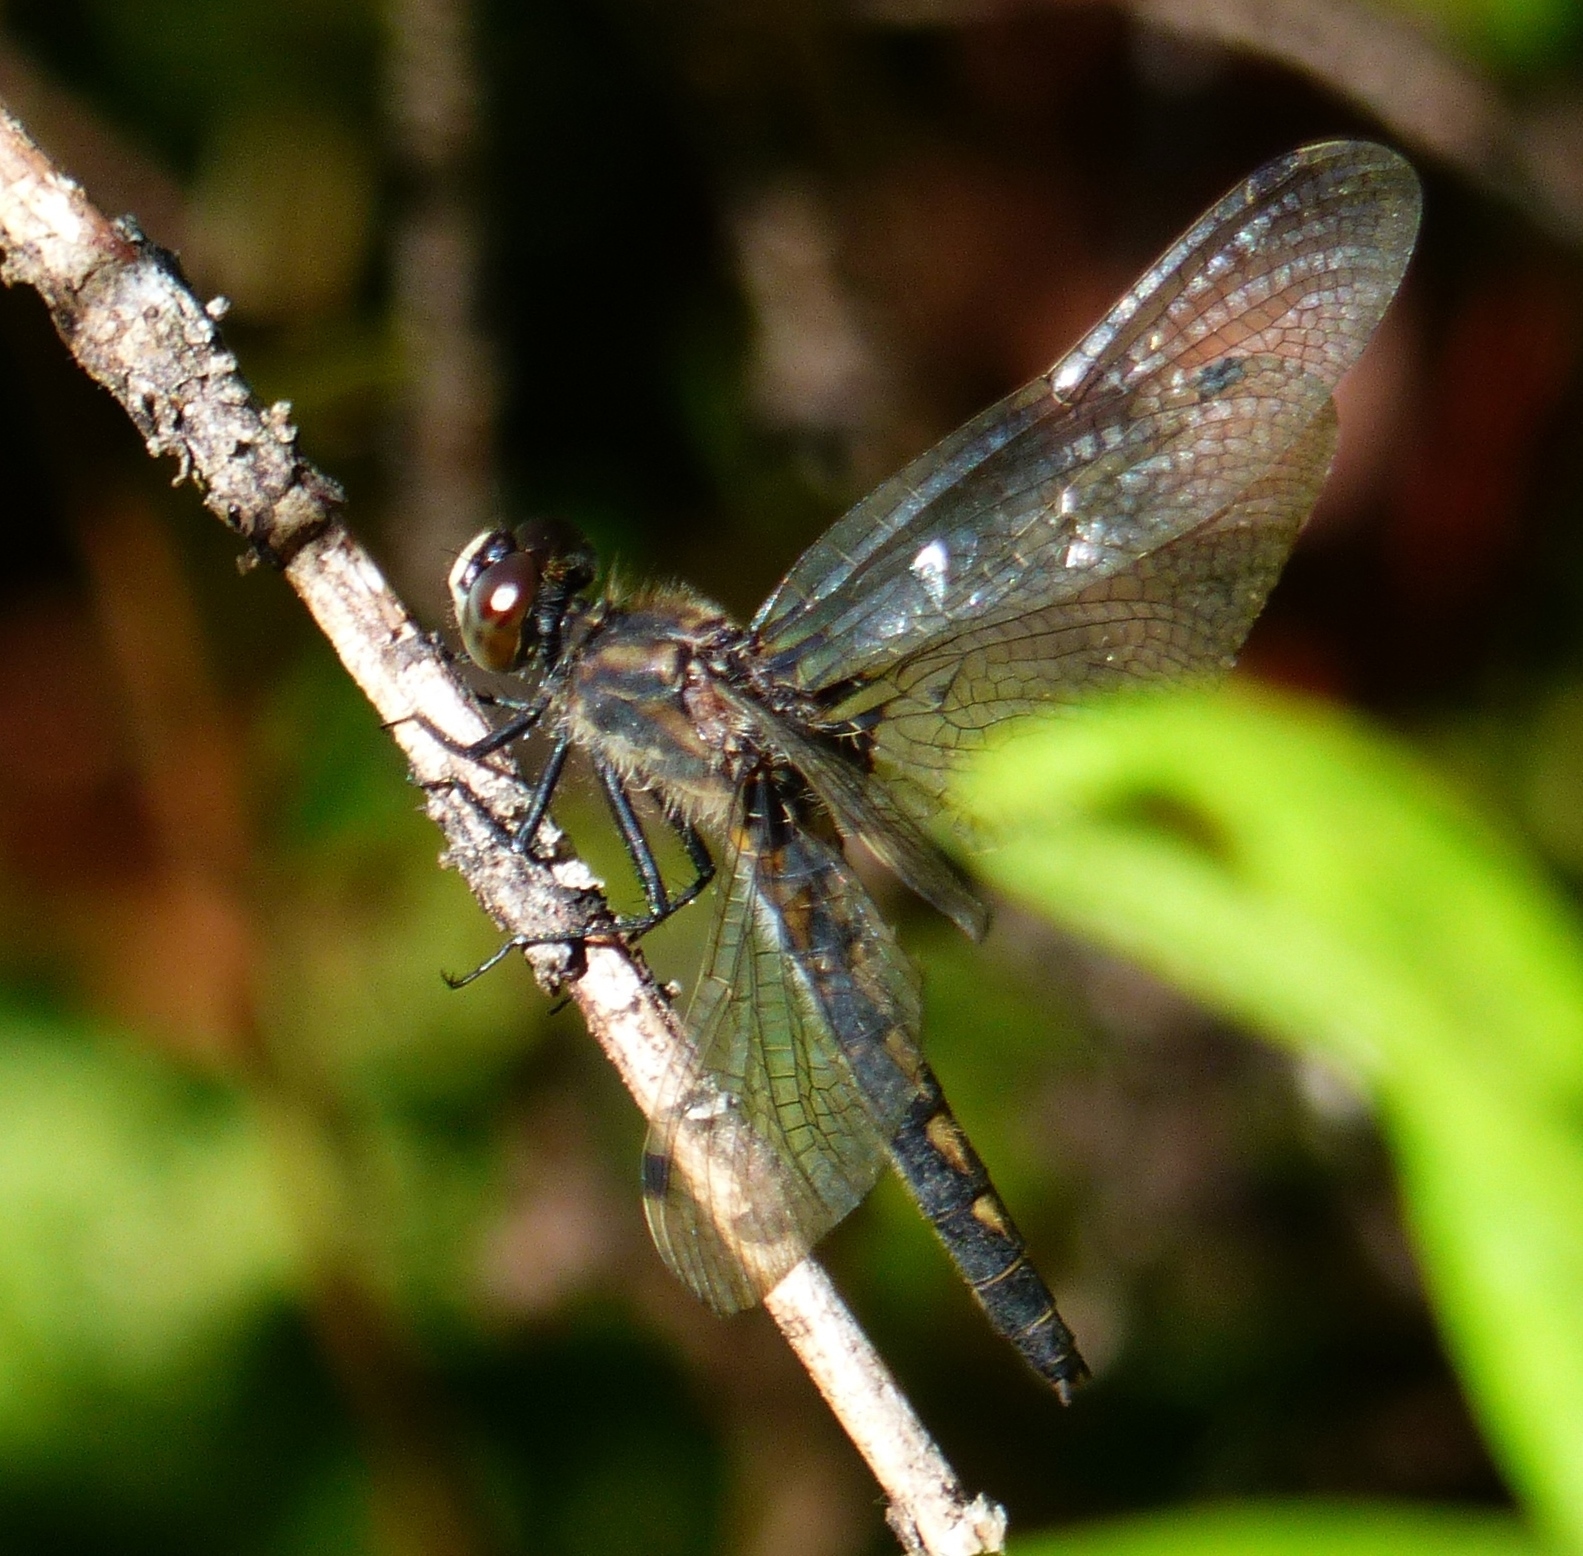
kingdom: Animalia
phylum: Arthropoda
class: Insecta
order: Odonata
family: Libellulidae
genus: Leucorrhinia
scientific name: Leucorrhinia hudsonica
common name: Hudsonian whiteface
